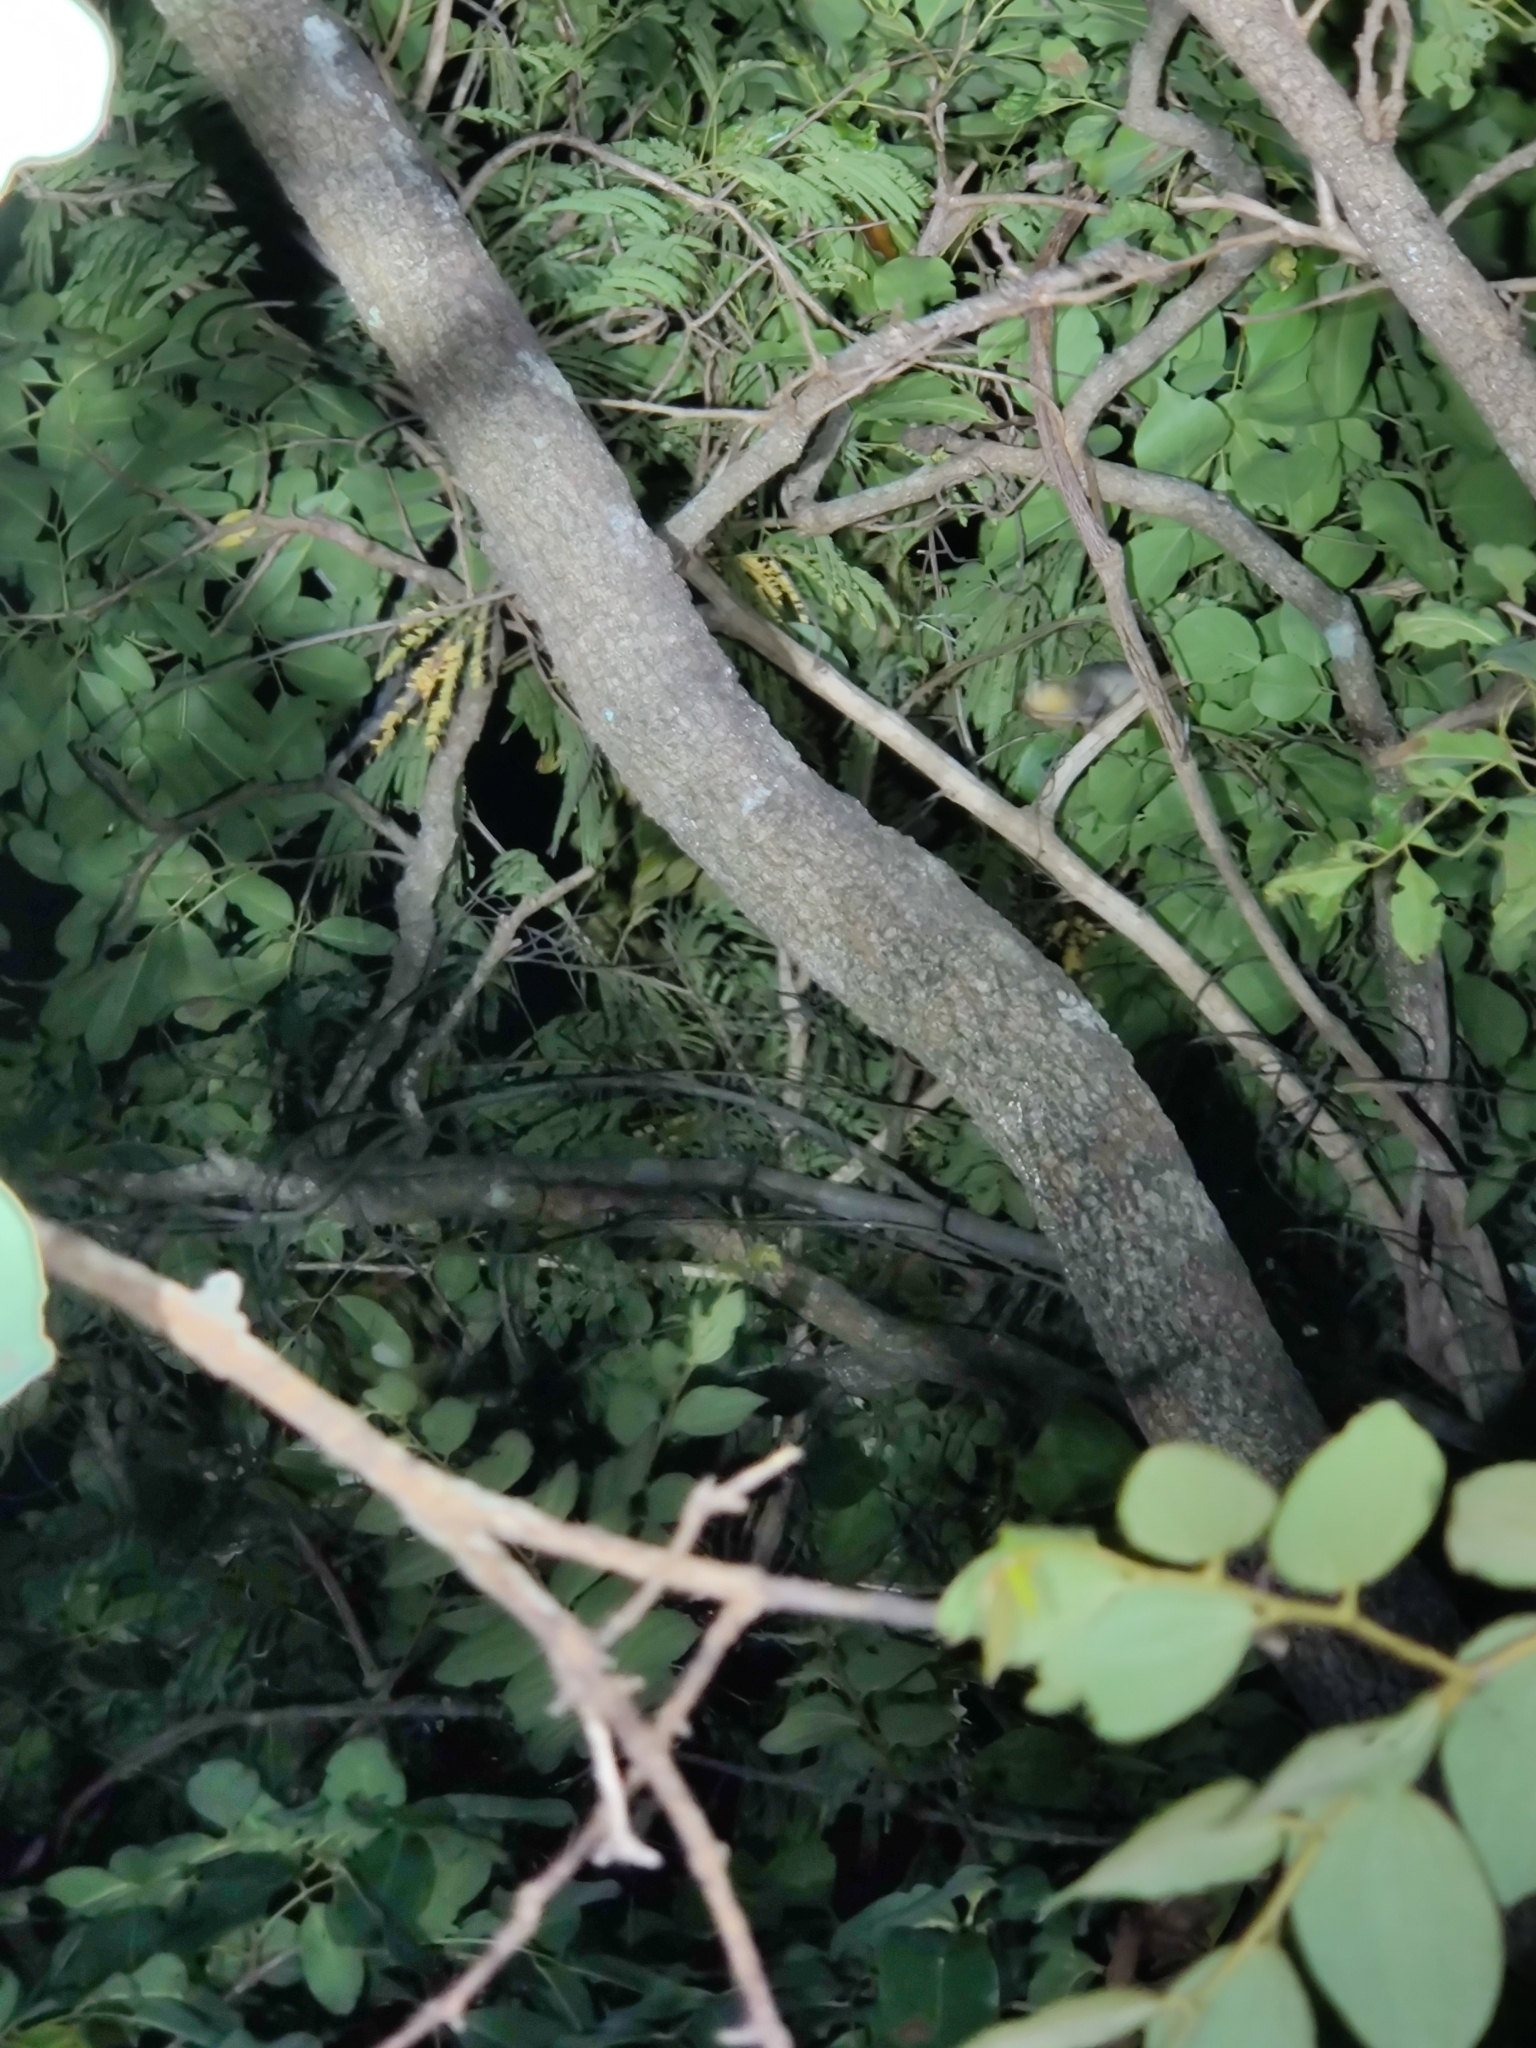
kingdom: Animalia
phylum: Chordata
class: Mammalia
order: Primates
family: Lorisidae
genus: Loris
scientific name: Loris lydekkerianus
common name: Gray slender loris
